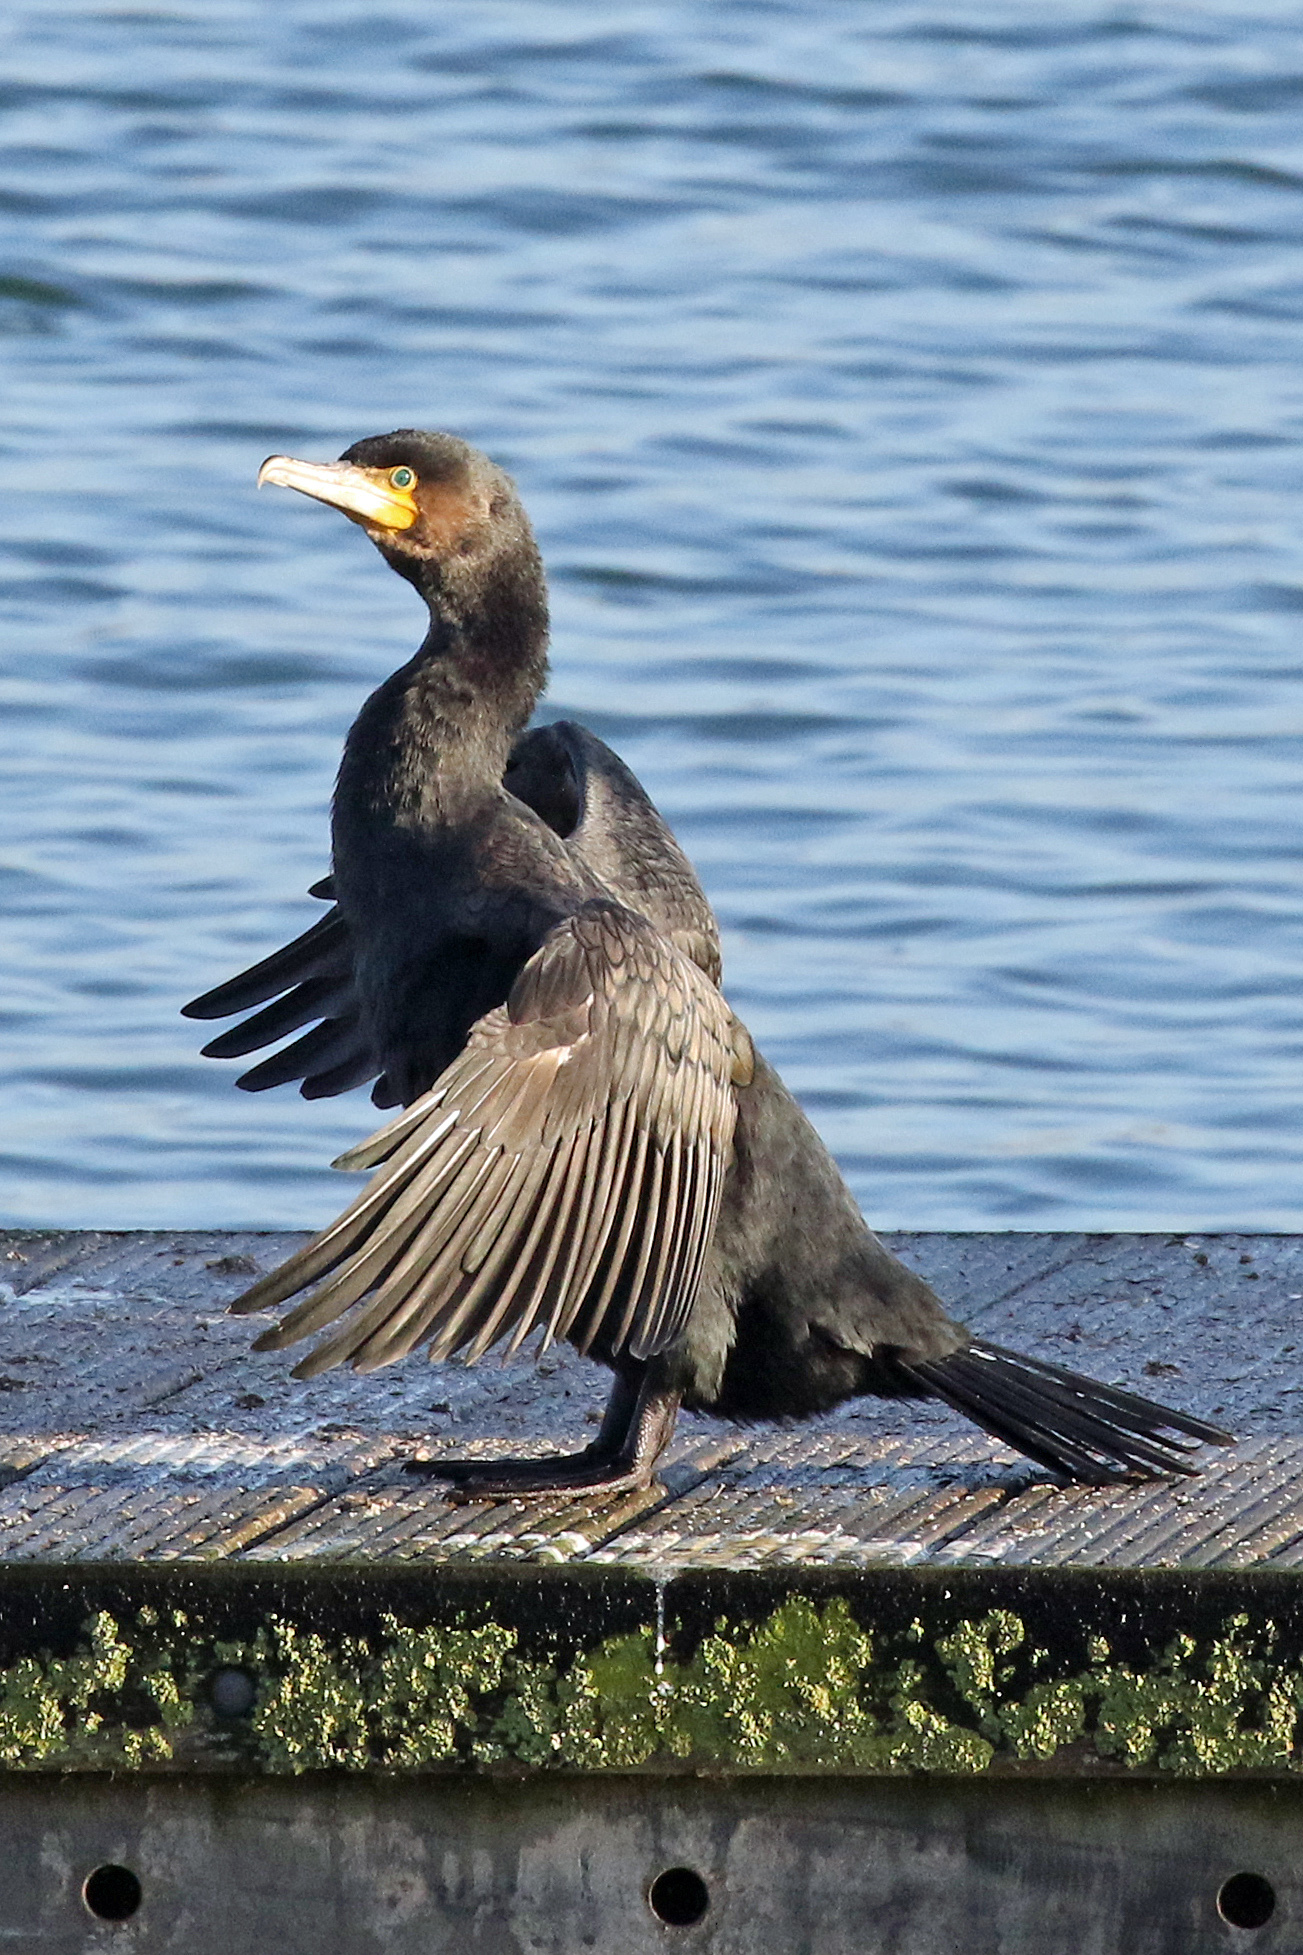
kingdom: Animalia
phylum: Chordata
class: Aves
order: Suliformes
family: Phalacrocoracidae
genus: Phalacrocorax
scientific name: Phalacrocorax carbo
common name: Great cormorant
